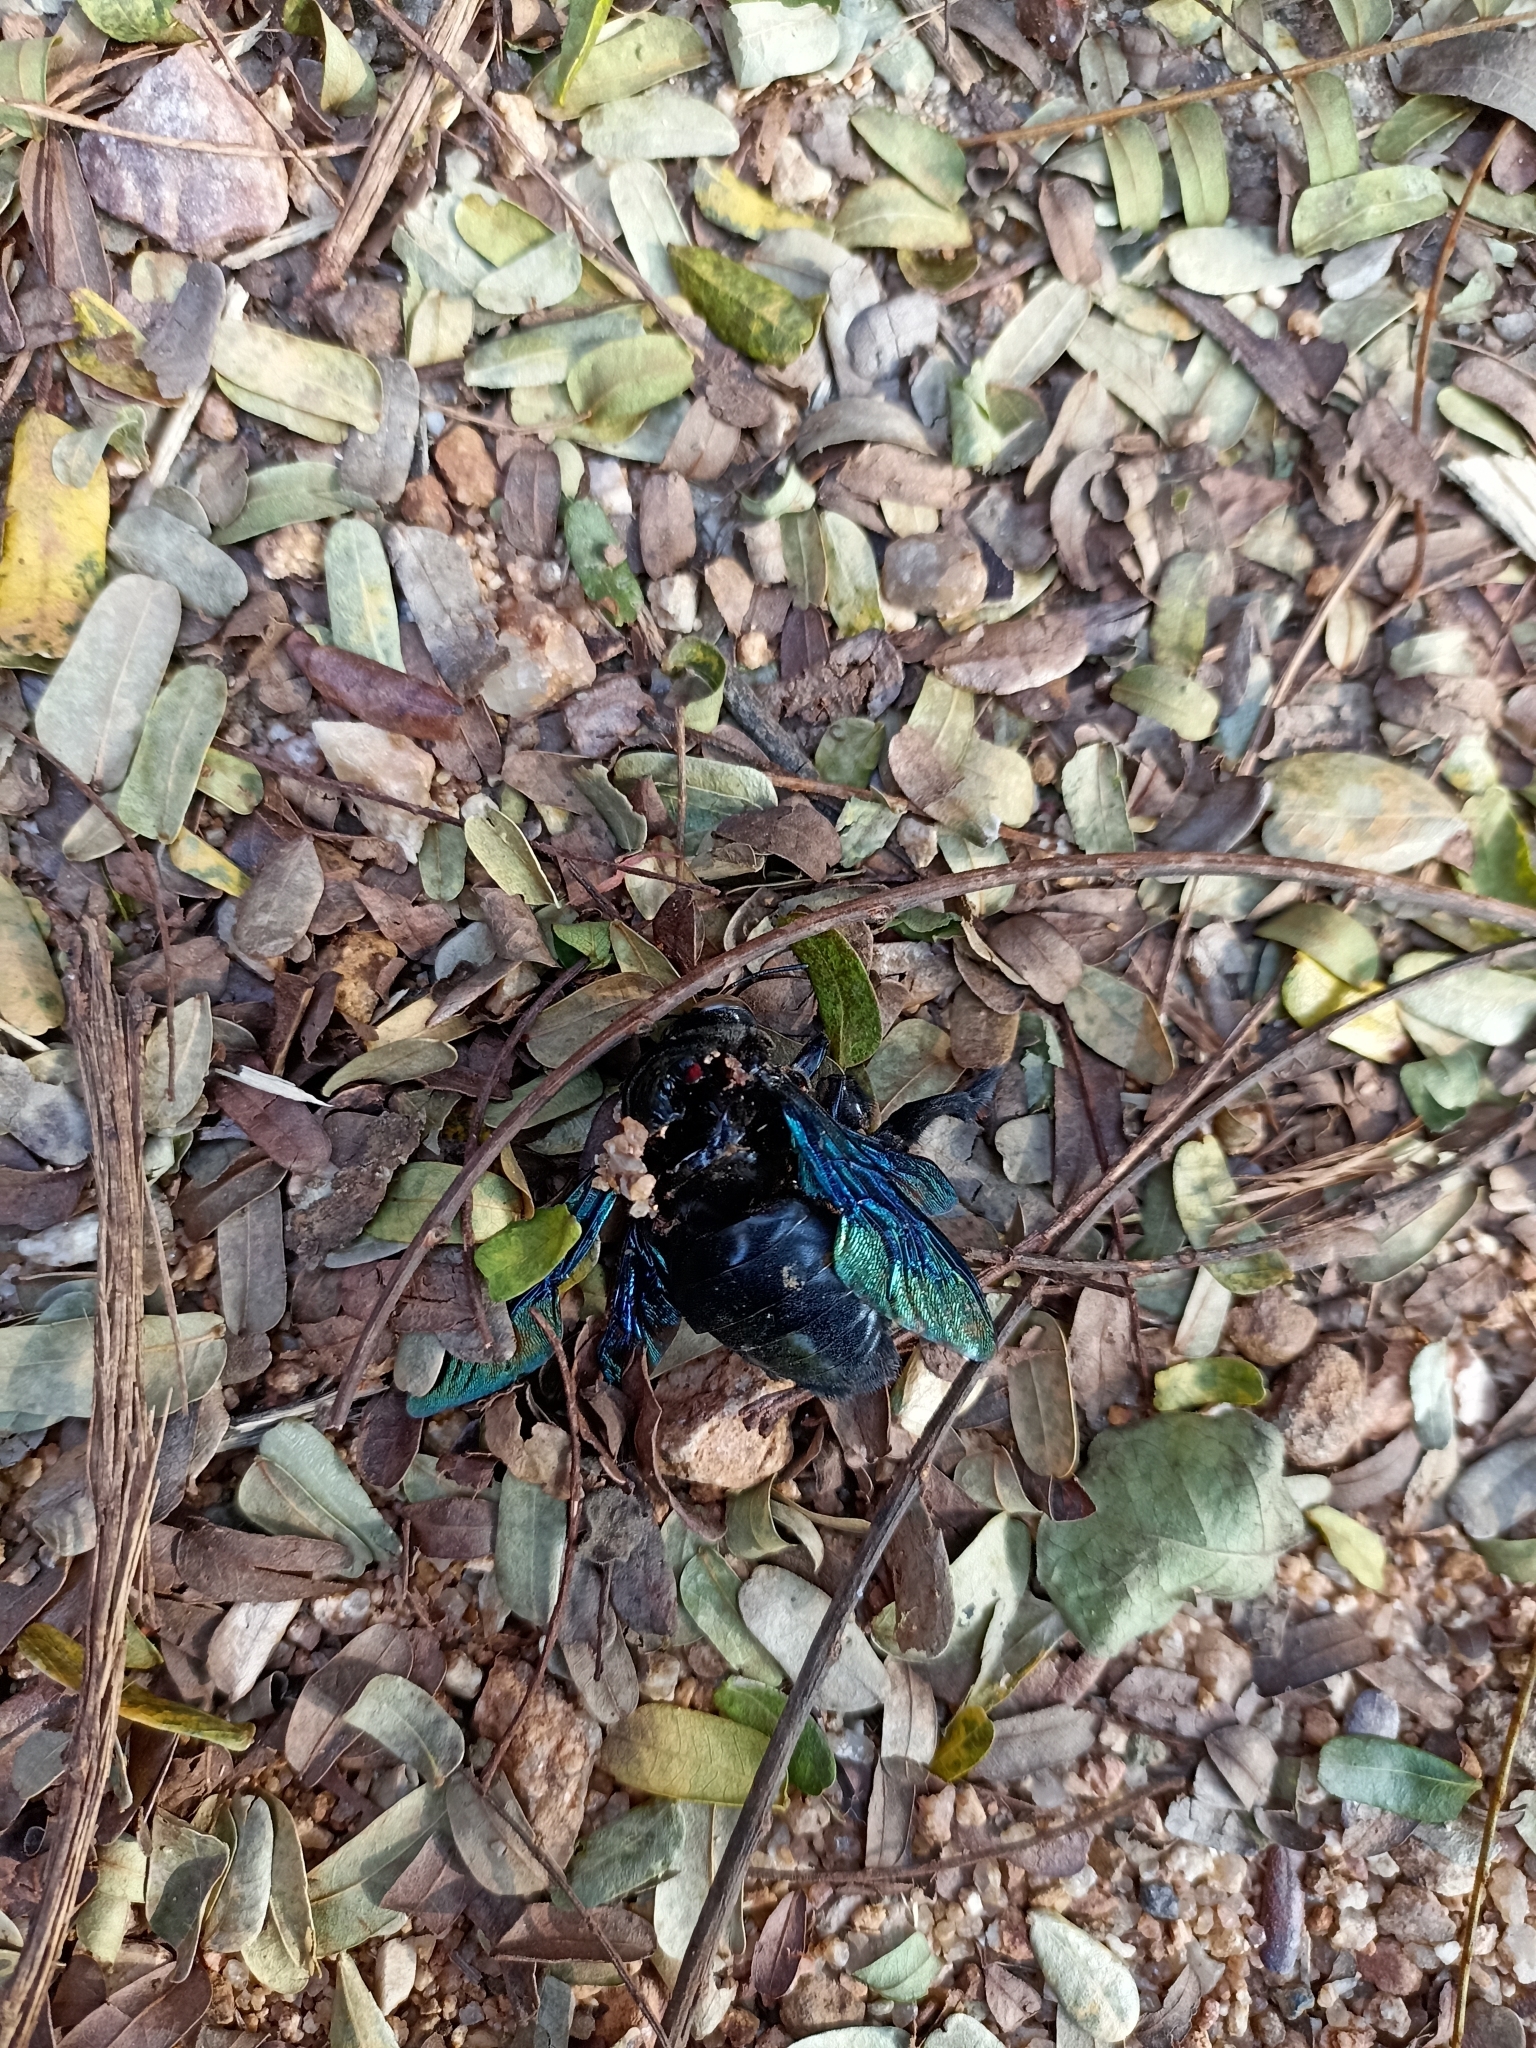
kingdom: Animalia
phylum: Arthropoda
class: Insecta
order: Hymenoptera
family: Apidae
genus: Xylocopa
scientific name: Xylocopa tenuiscapa
